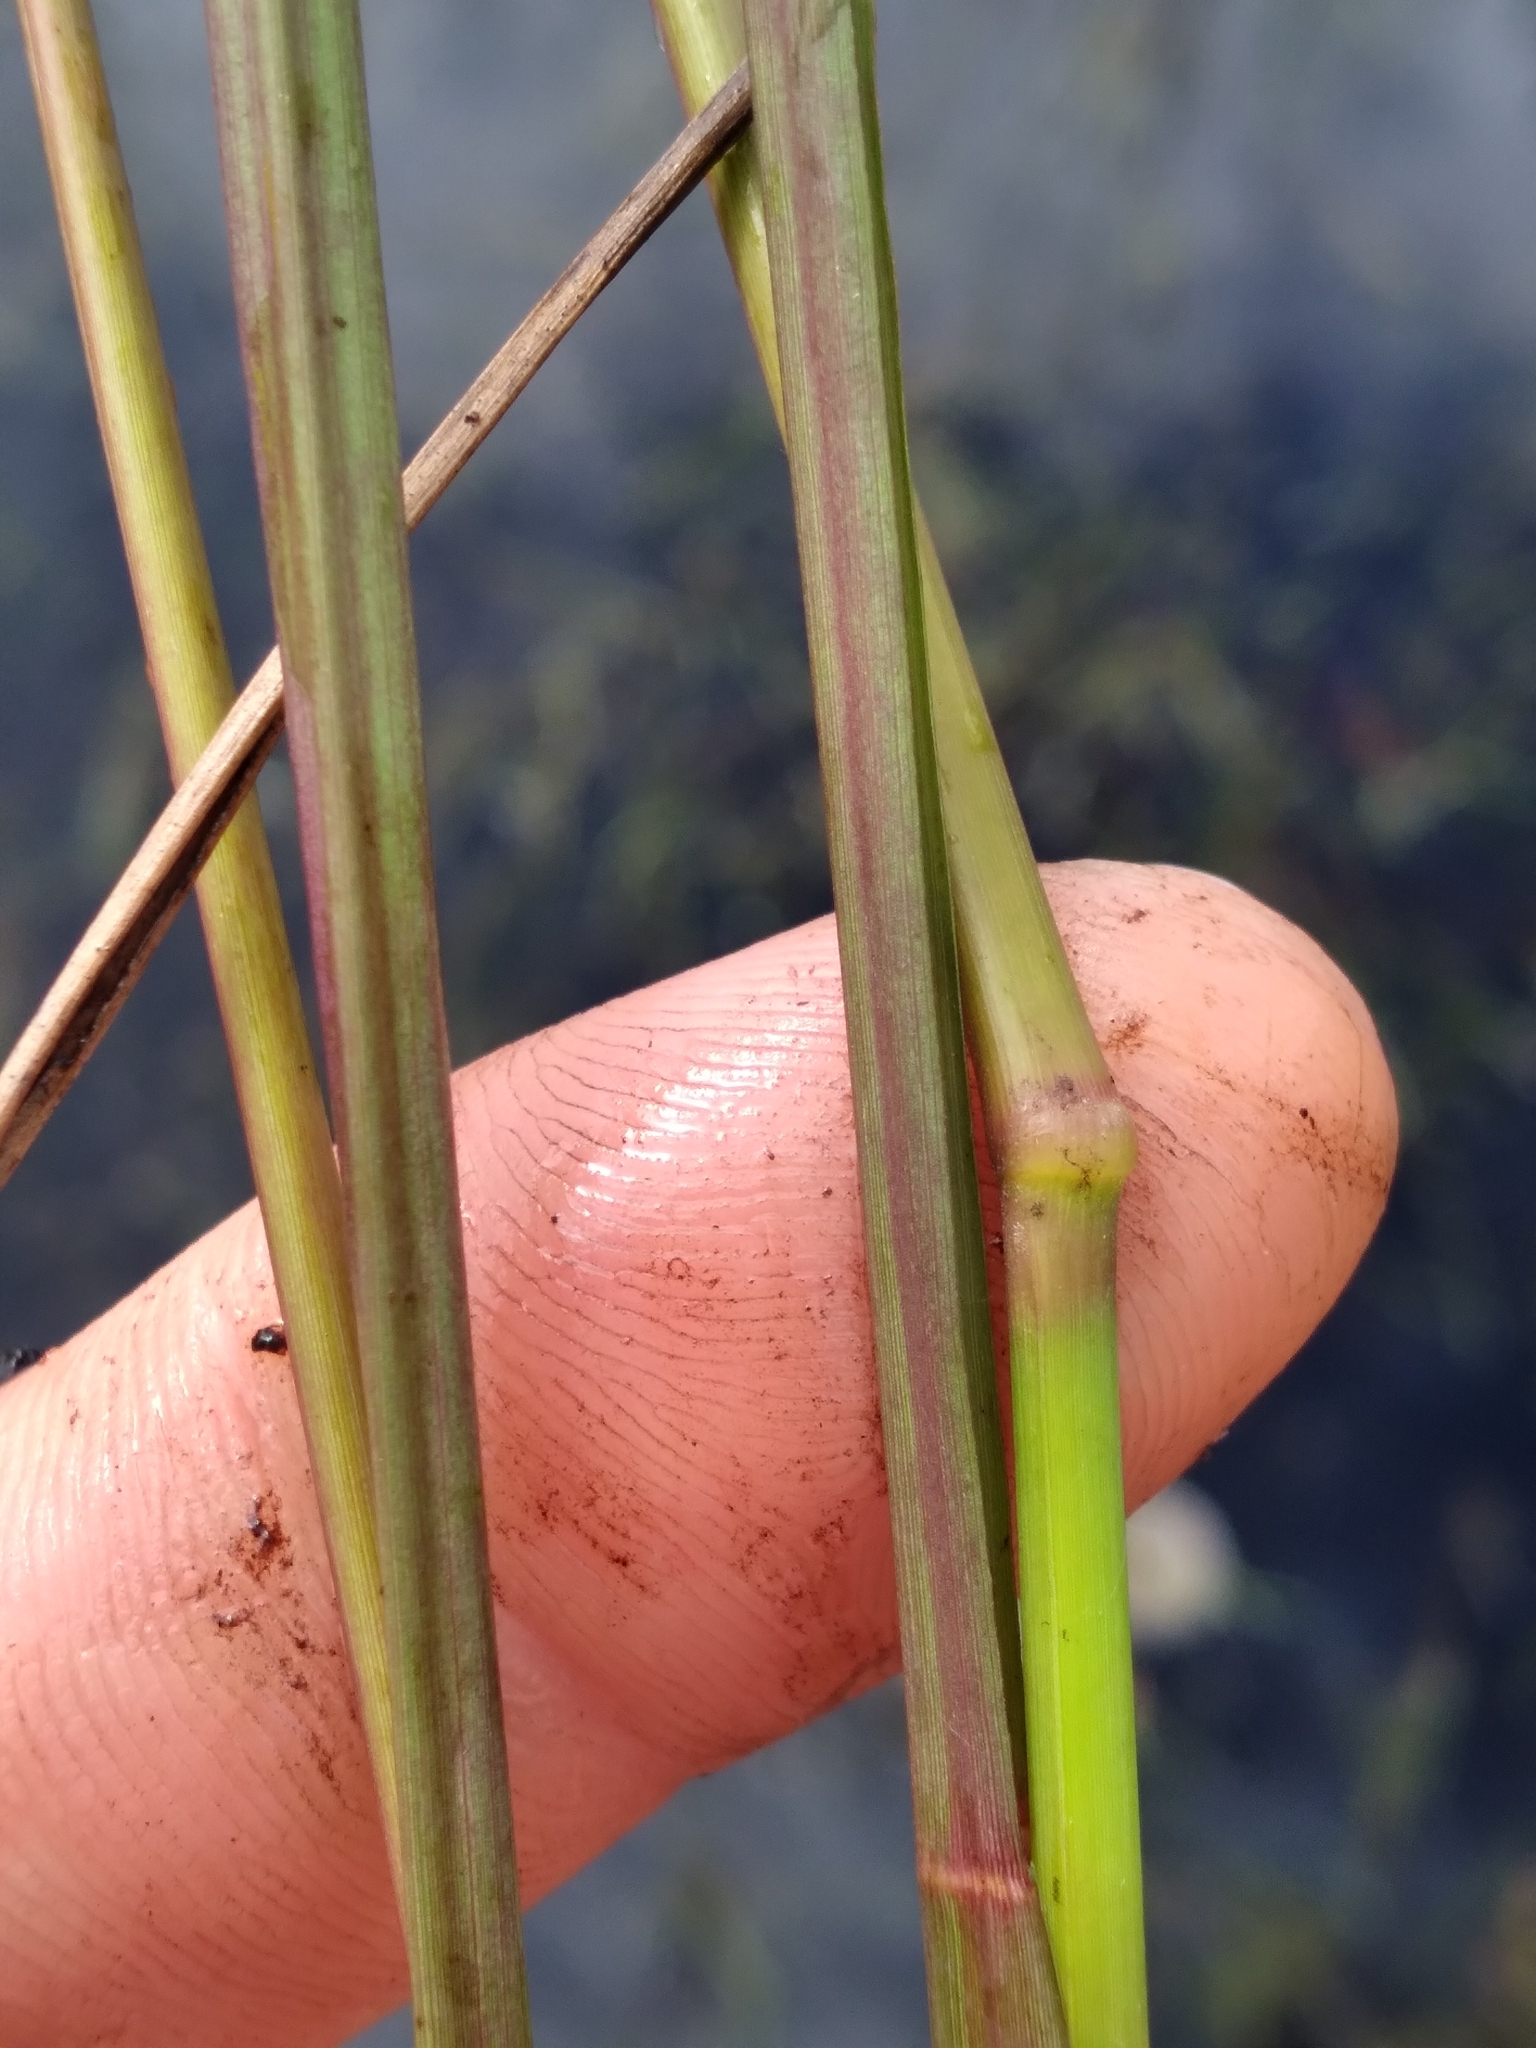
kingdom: Plantae
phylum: Tracheophyta
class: Liliopsida
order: Poales
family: Poaceae
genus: Coleataenia
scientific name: Coleataenia longifolia
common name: Long-leaved panicgrass
